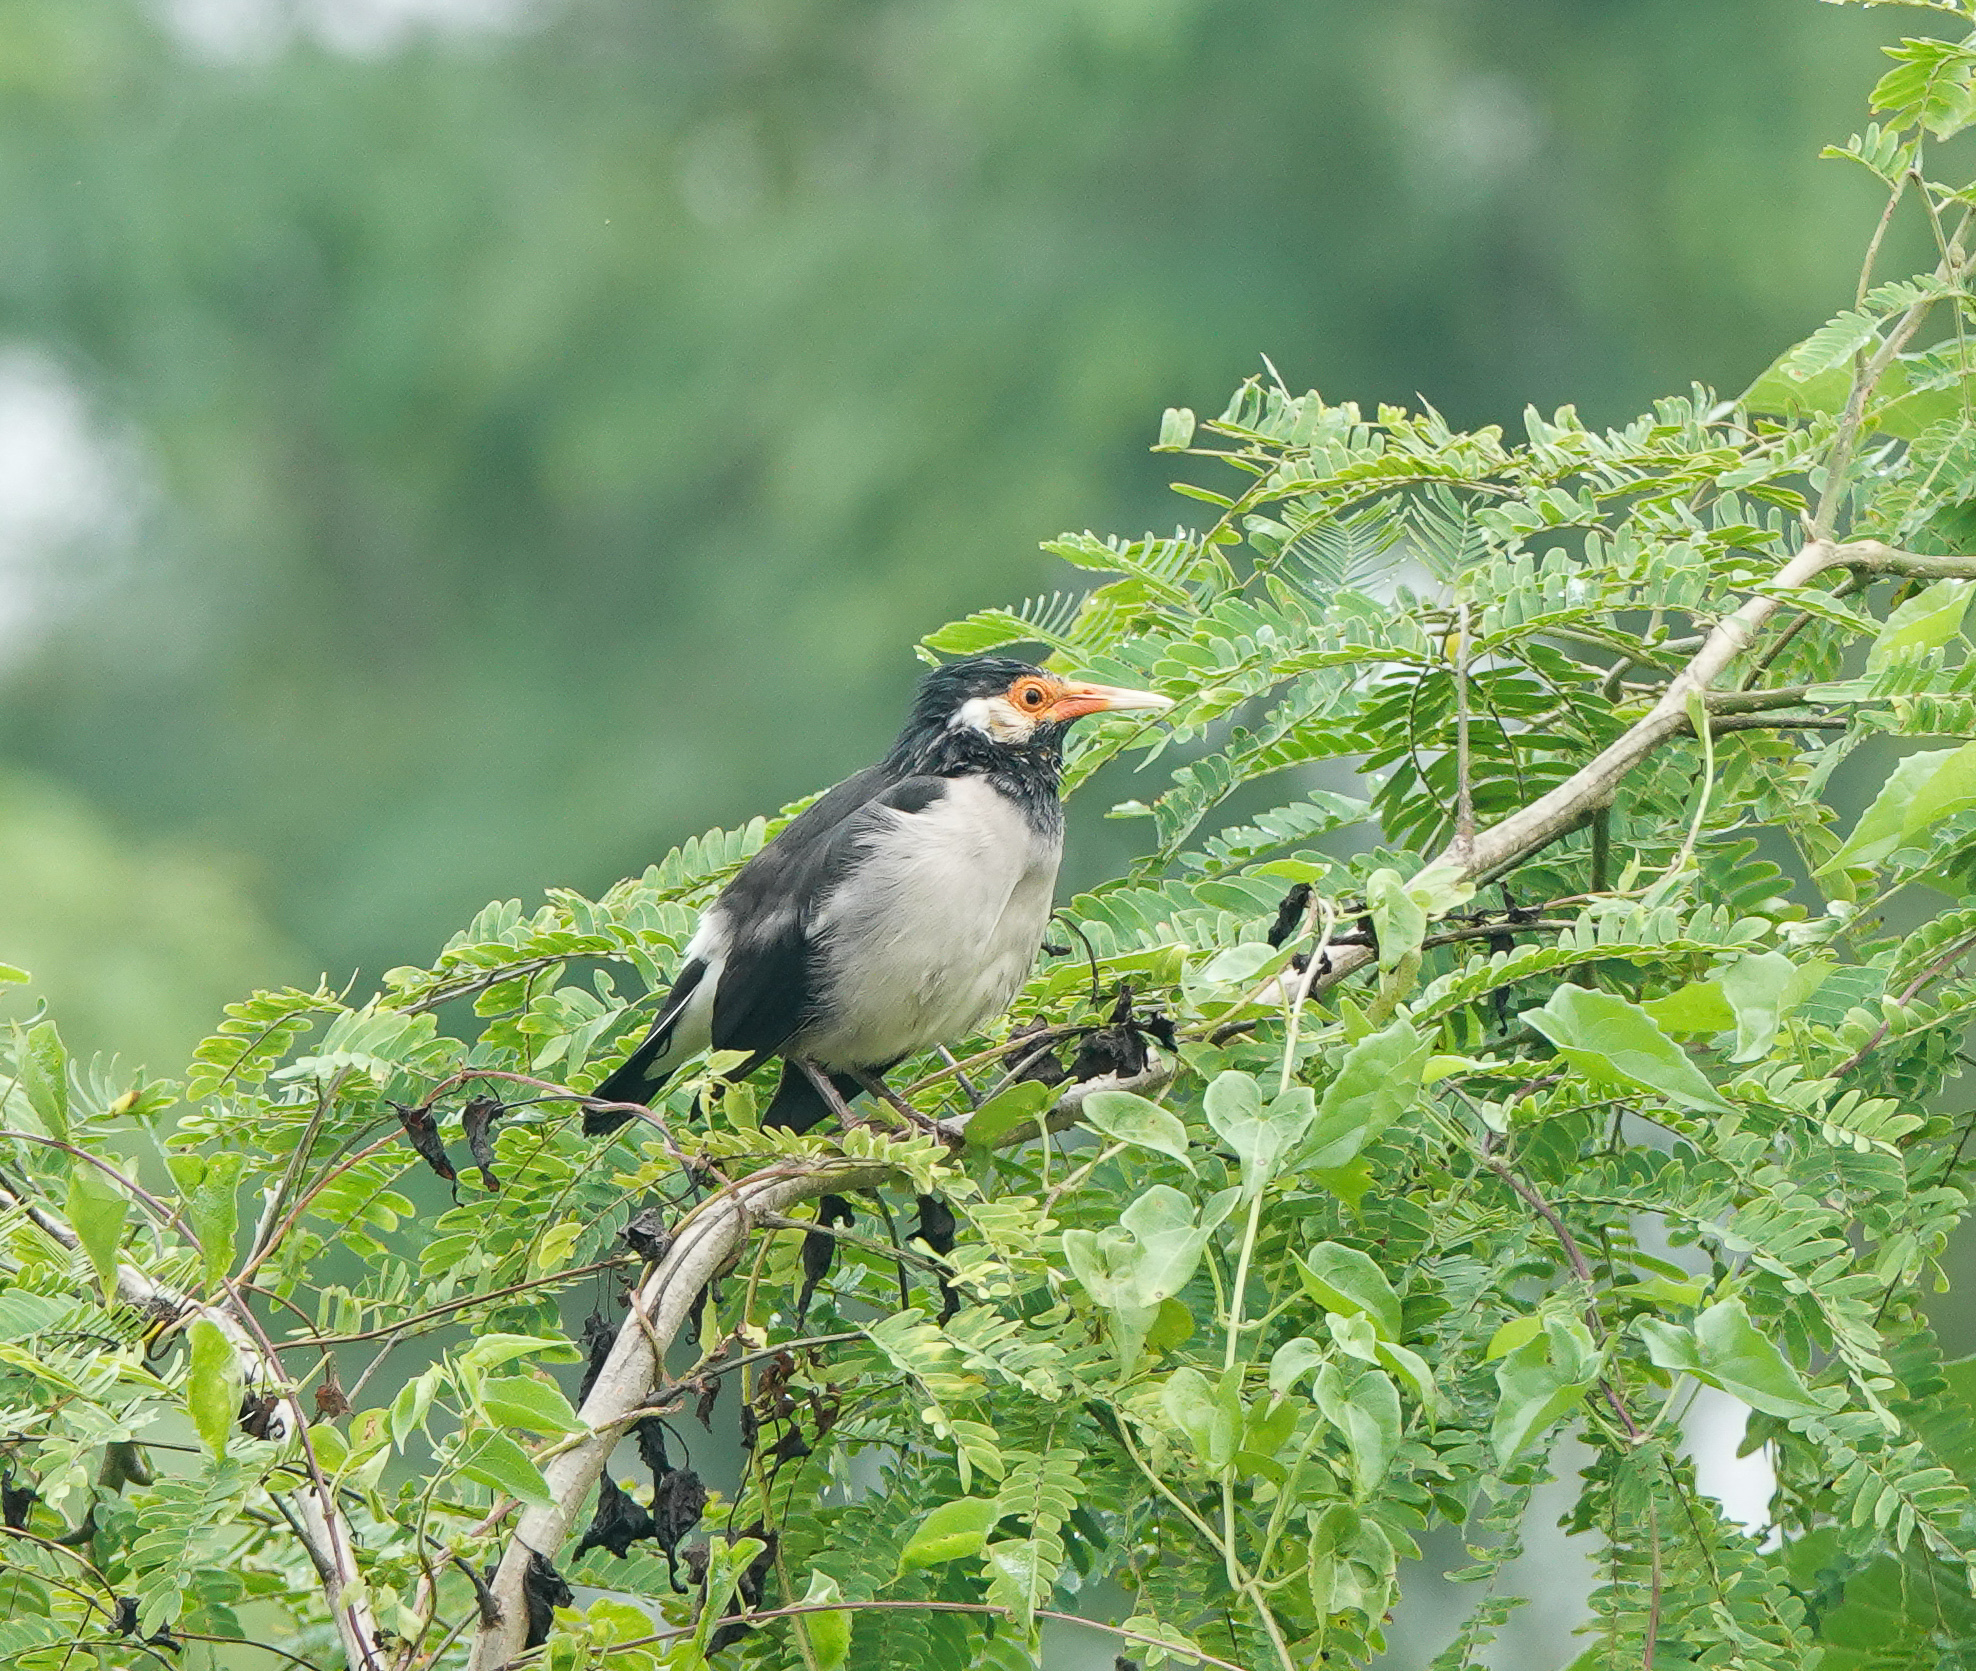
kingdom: Animalia
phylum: Chordata
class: Aves
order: Passeriformes
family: Sturnidae
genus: Gracupica
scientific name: Gracupica contra
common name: Pied myna
